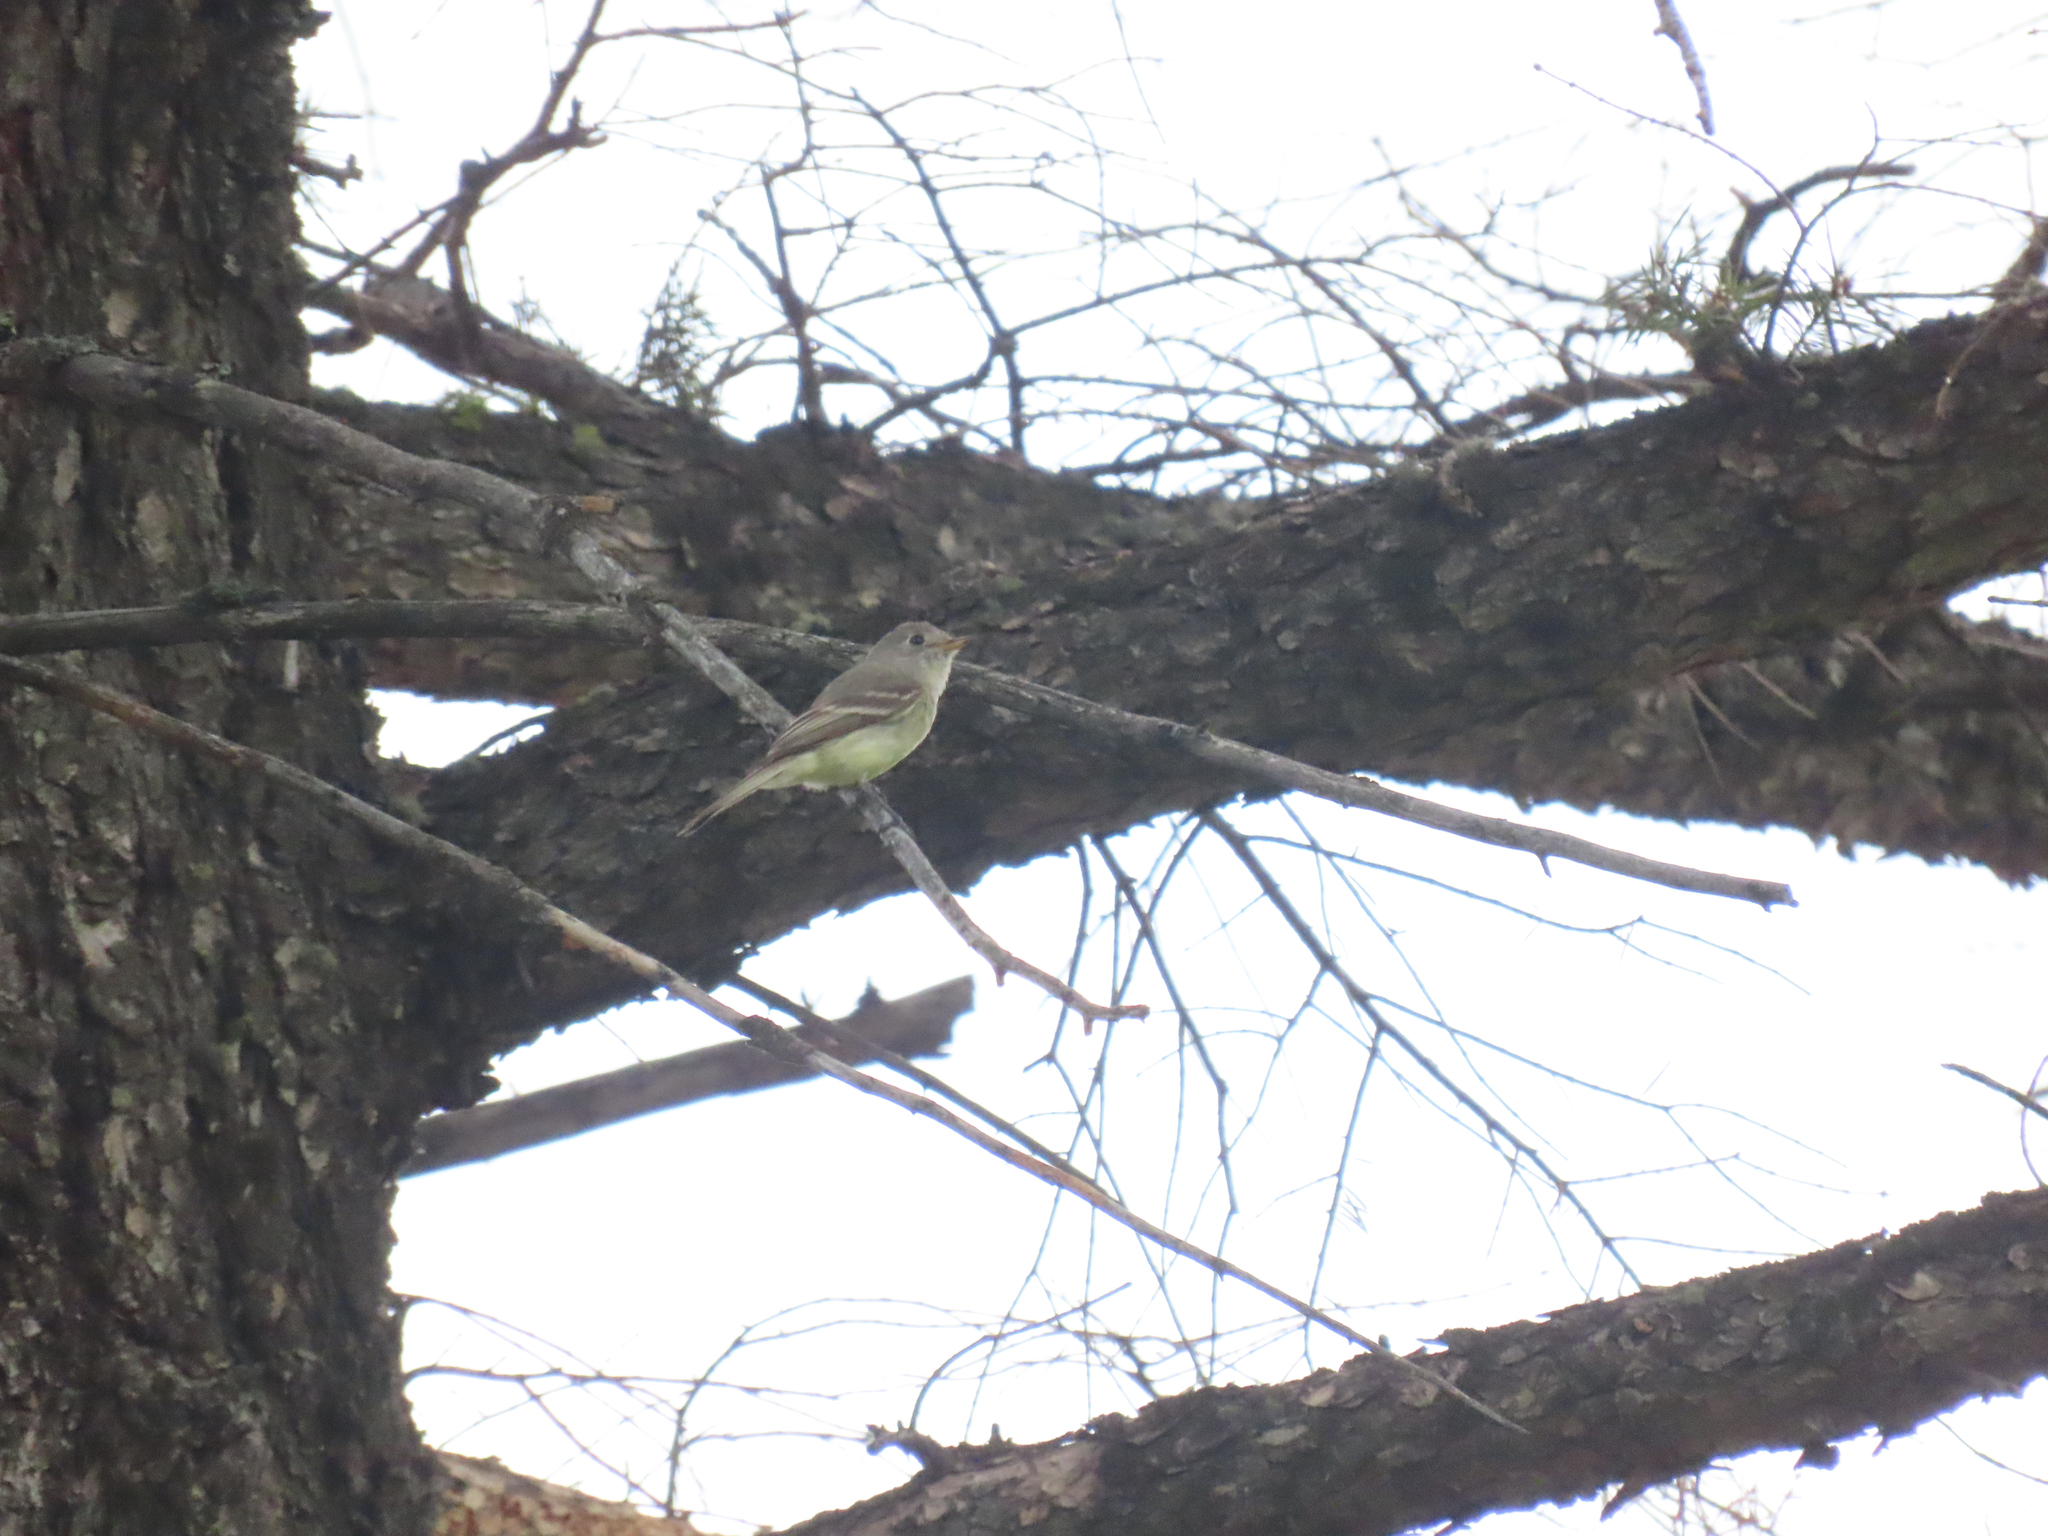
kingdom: Animalia
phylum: Chordata
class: Aves
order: Passeriformes
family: Tyrannidae
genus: Empidonax
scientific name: Empidonax difficilis
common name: Pacific-slope flycatcher
